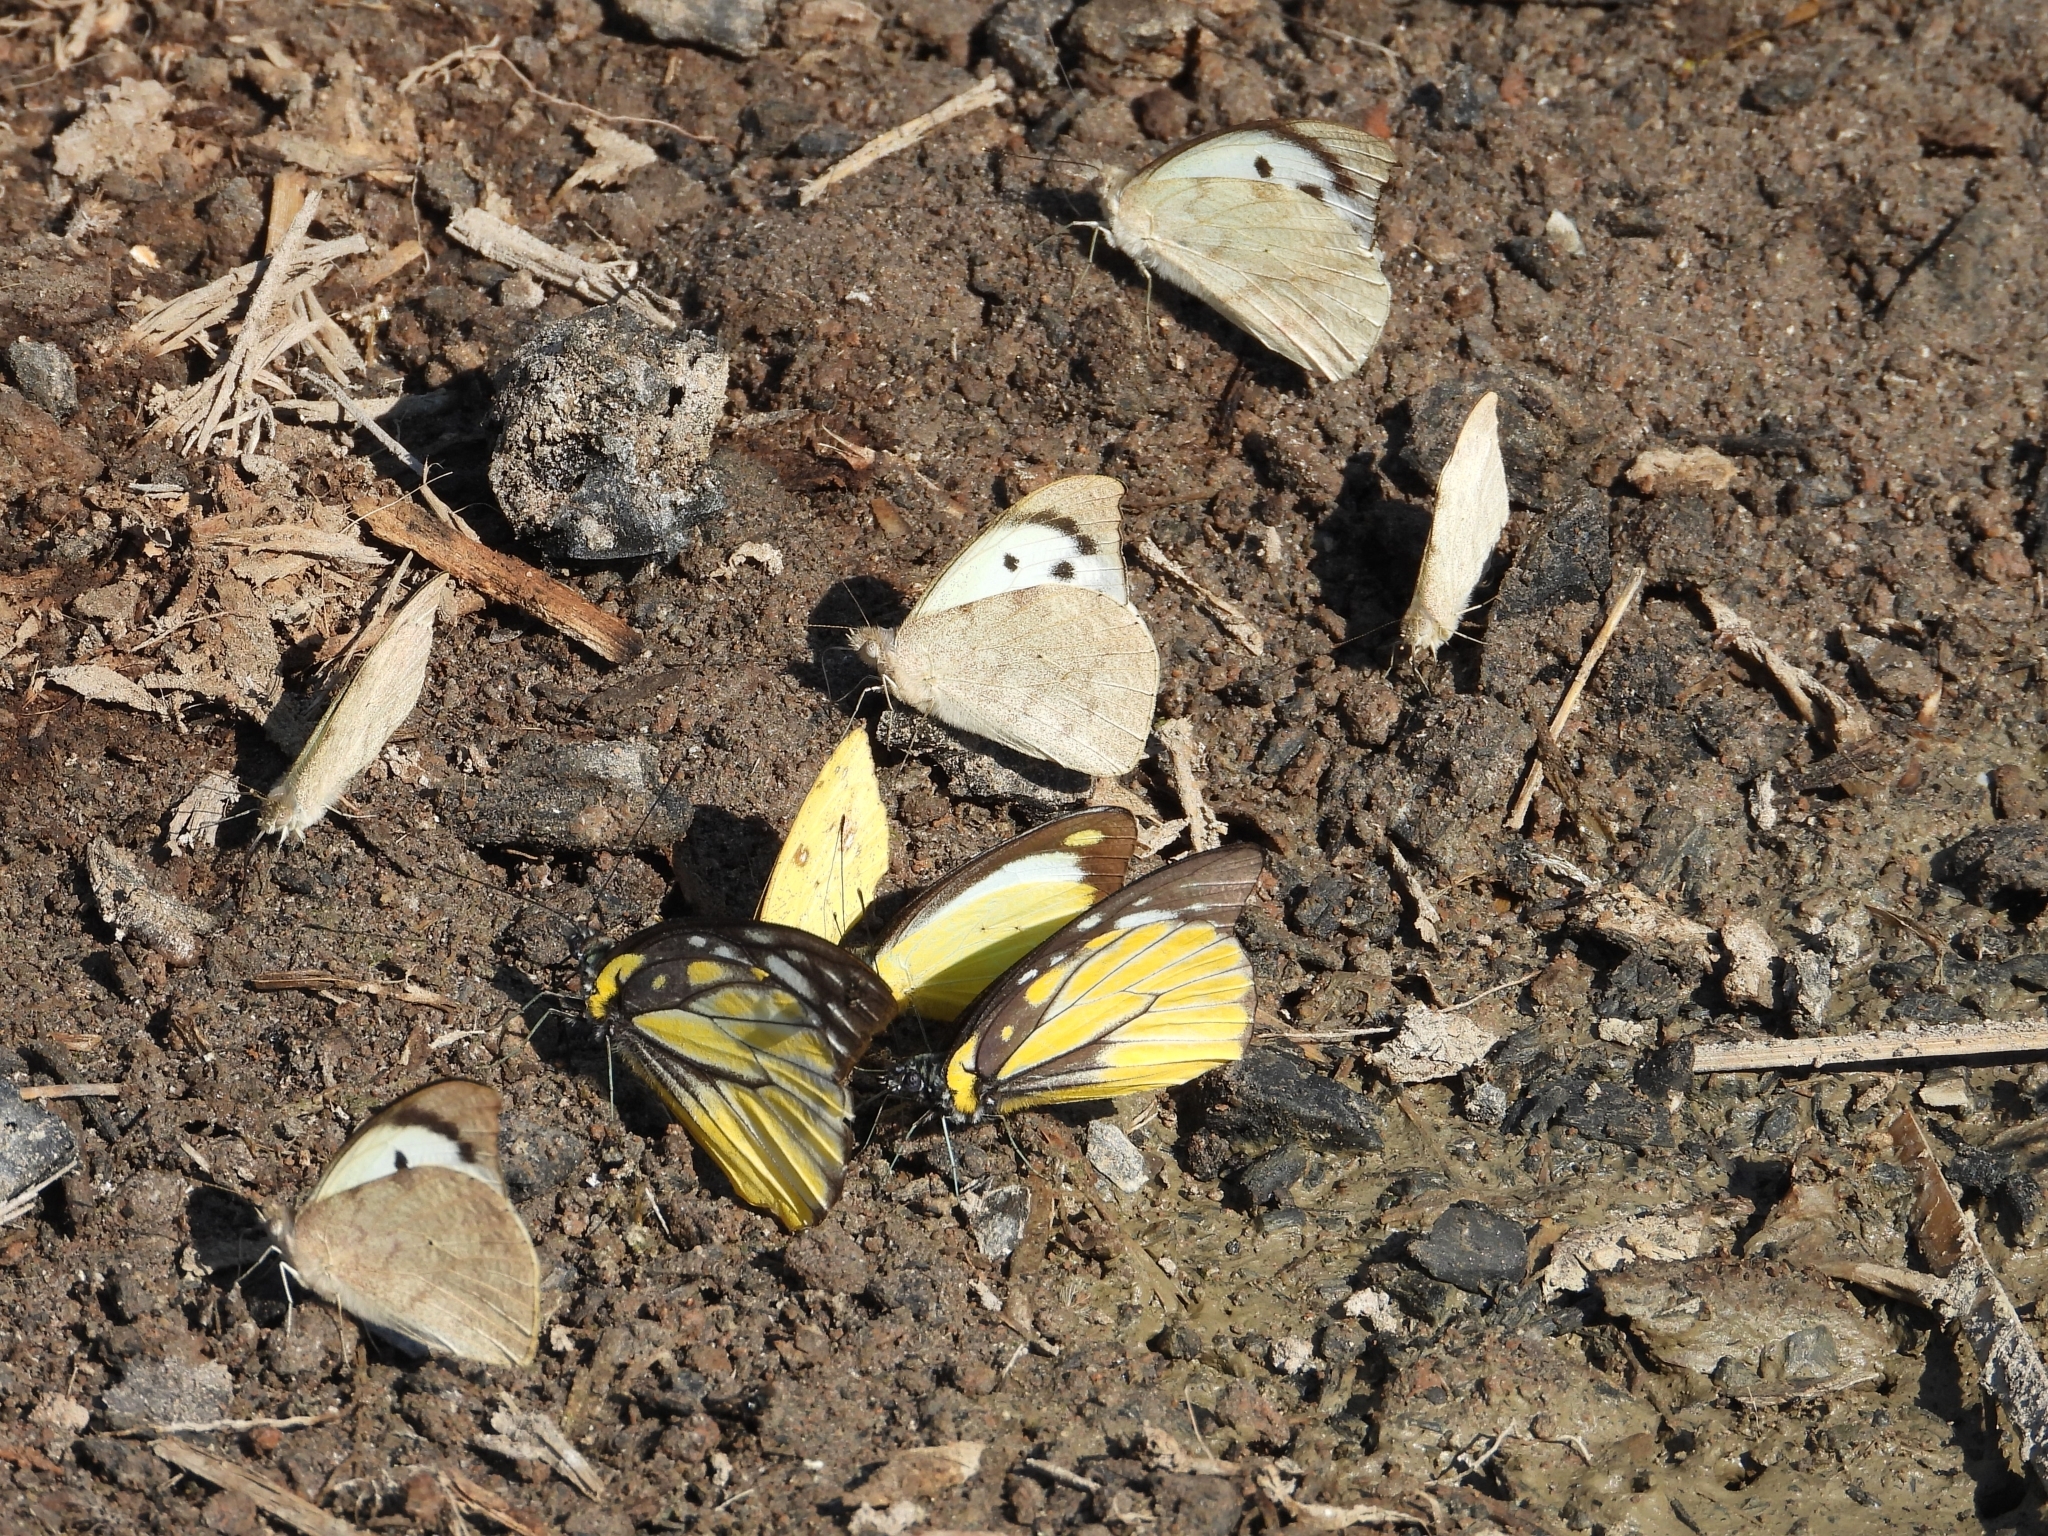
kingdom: Animalia
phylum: Arthropoda
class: Insecta
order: Lepidoptera
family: Pieridae
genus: Appias
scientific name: Appias lalage
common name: Spot puffin
